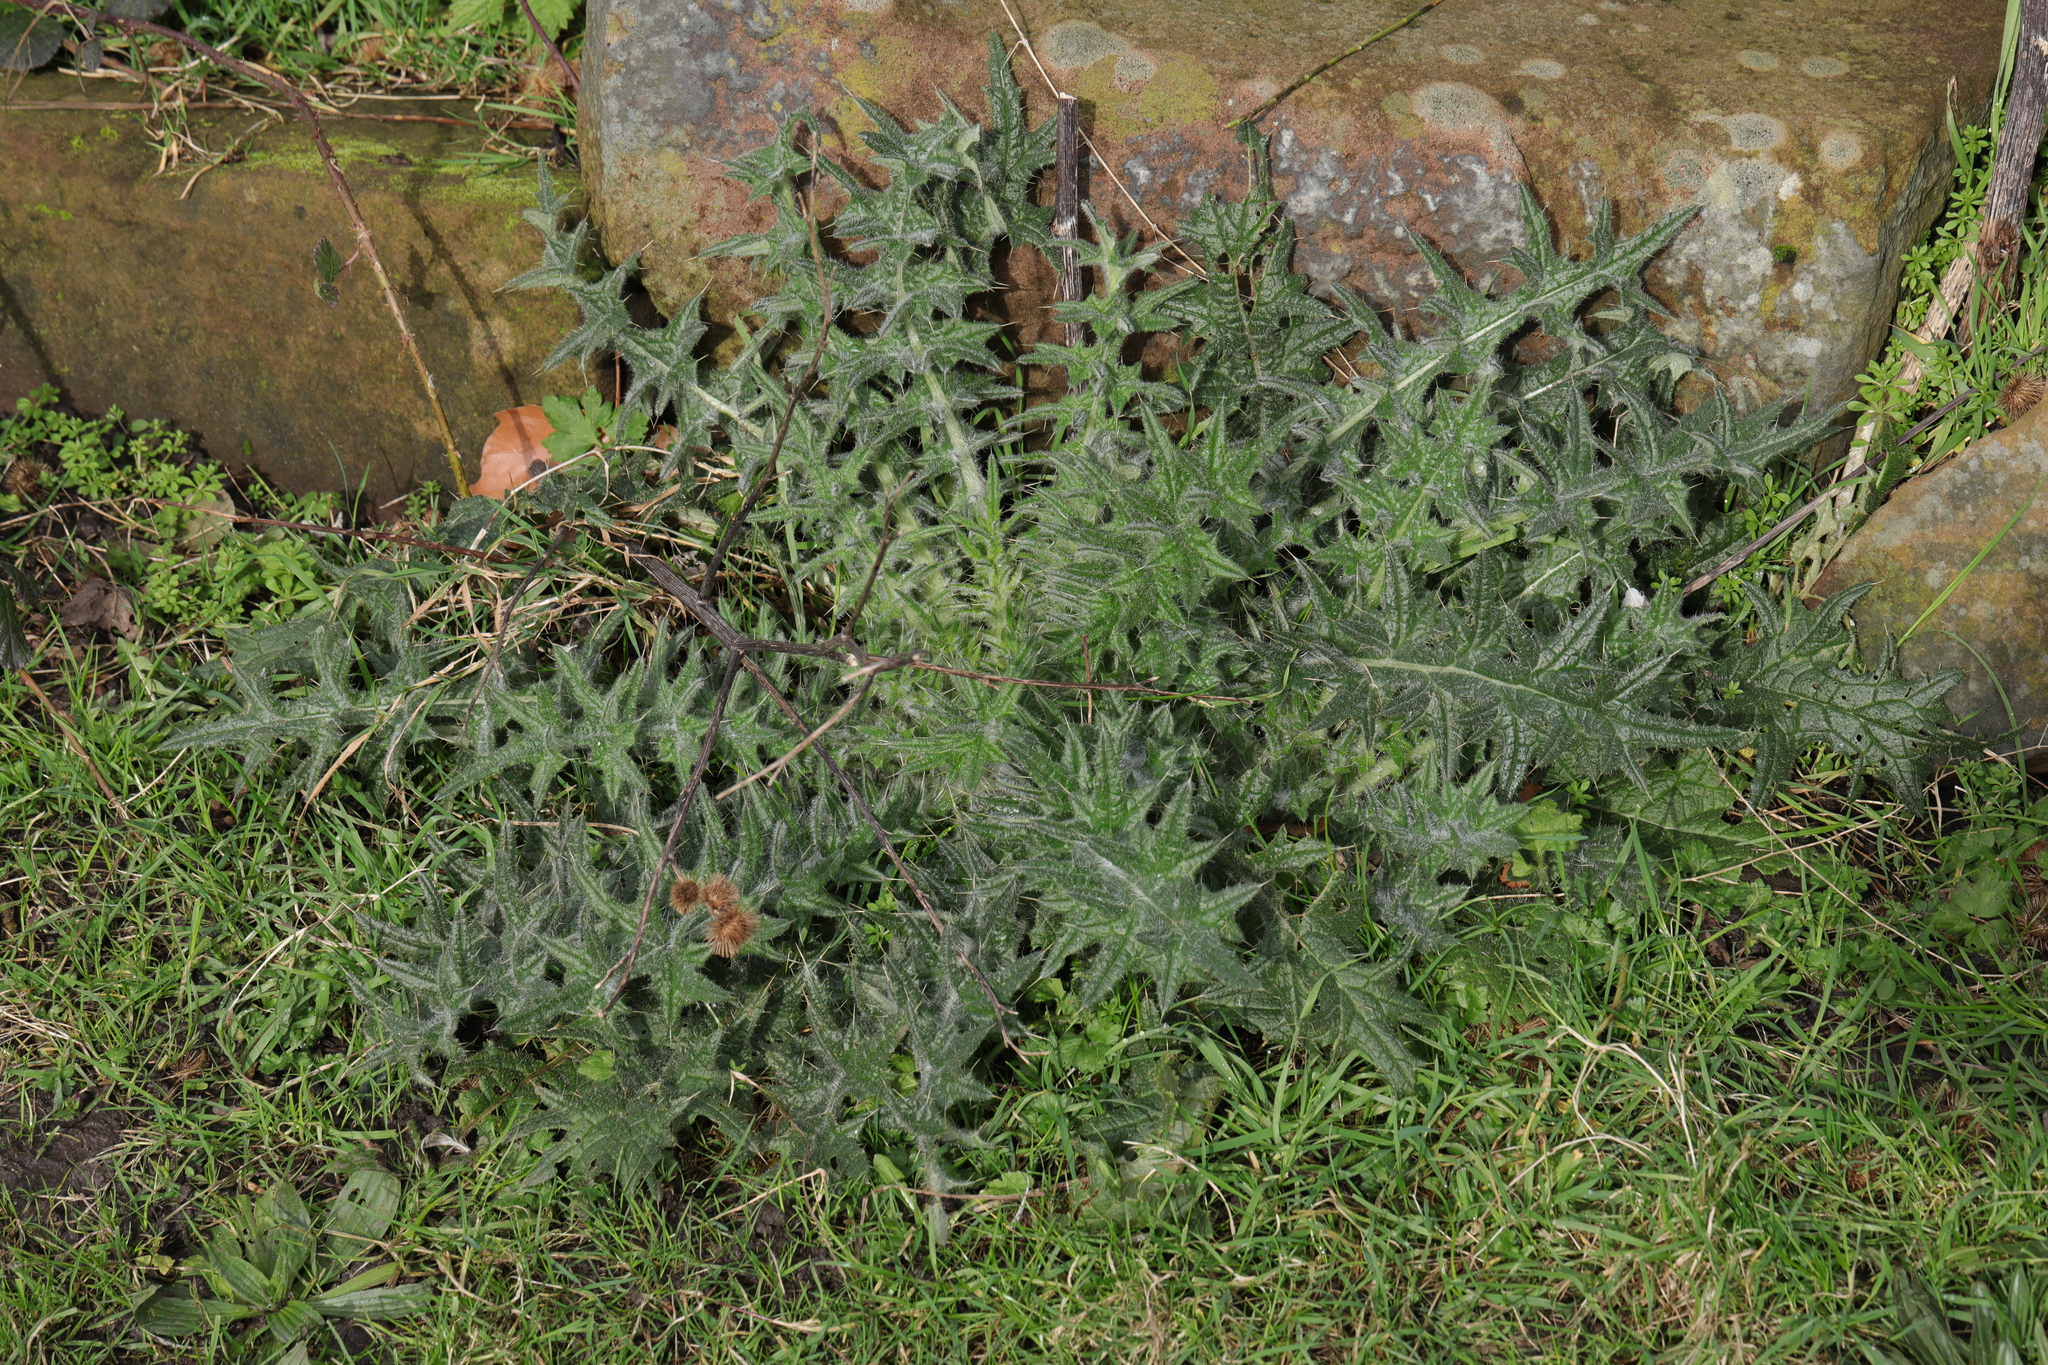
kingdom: Plantae
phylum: Tracheophyta
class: Magnoliopsida
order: Asterales
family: Asteraceae
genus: Cirsium
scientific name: Cirsium vulgare
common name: Bull thistle
